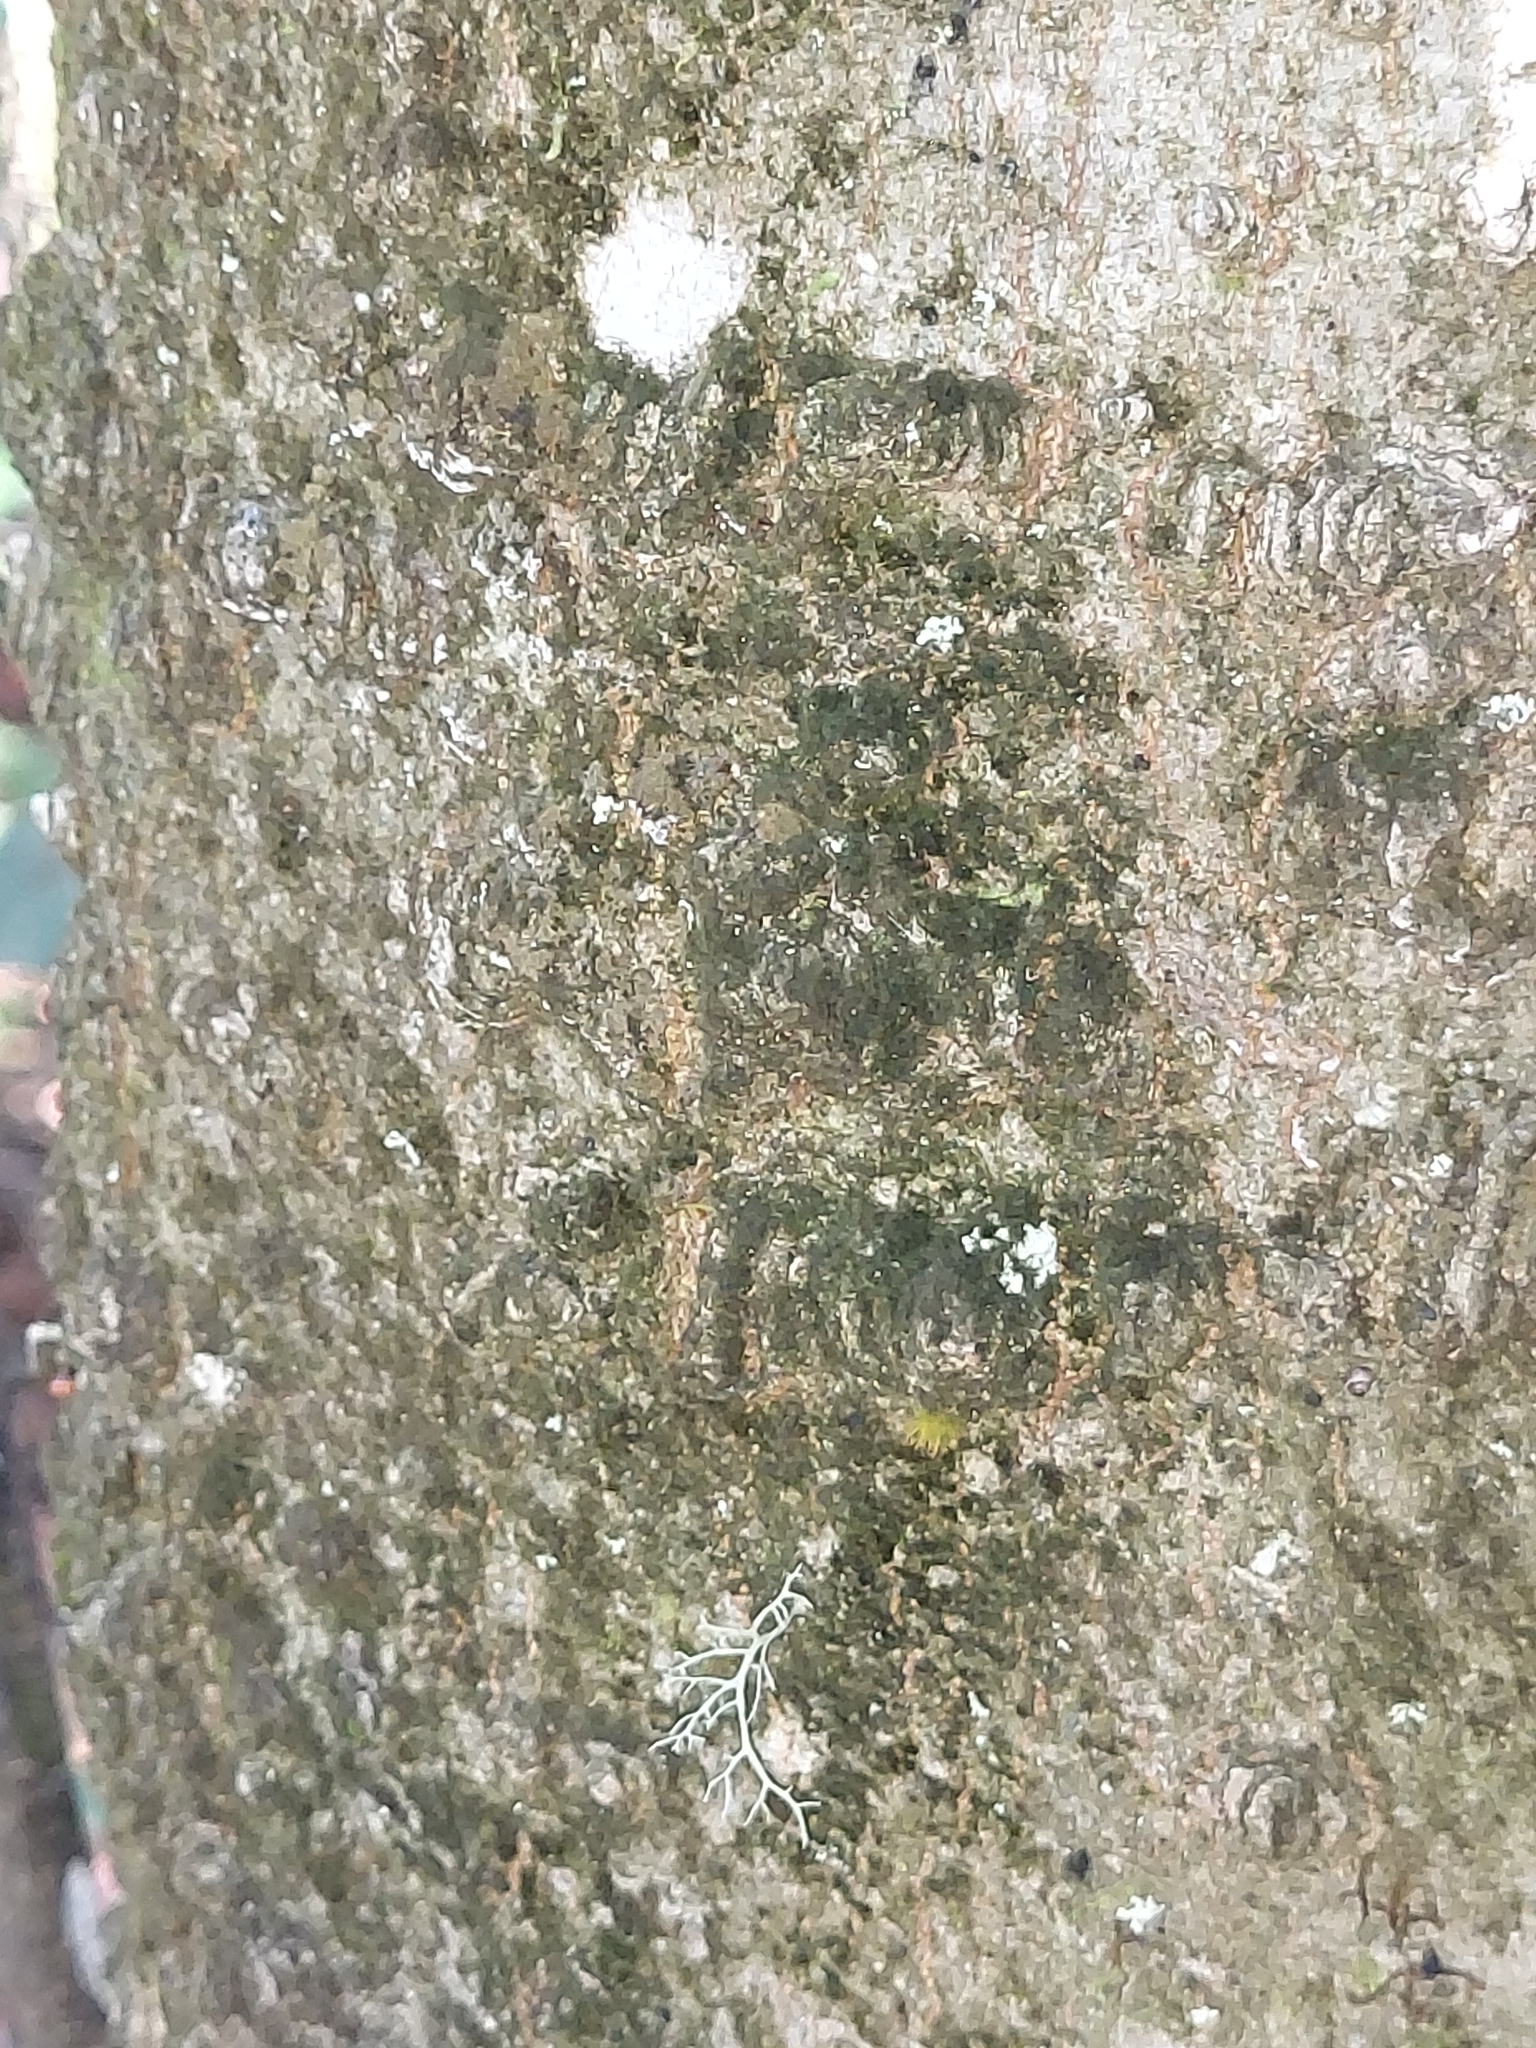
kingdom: Plantae
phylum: Tracheophyta
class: Magnoliopsida
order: Rosales
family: Cannabaceae
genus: Celtis
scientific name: Celtis laevigata
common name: Sugarberry
